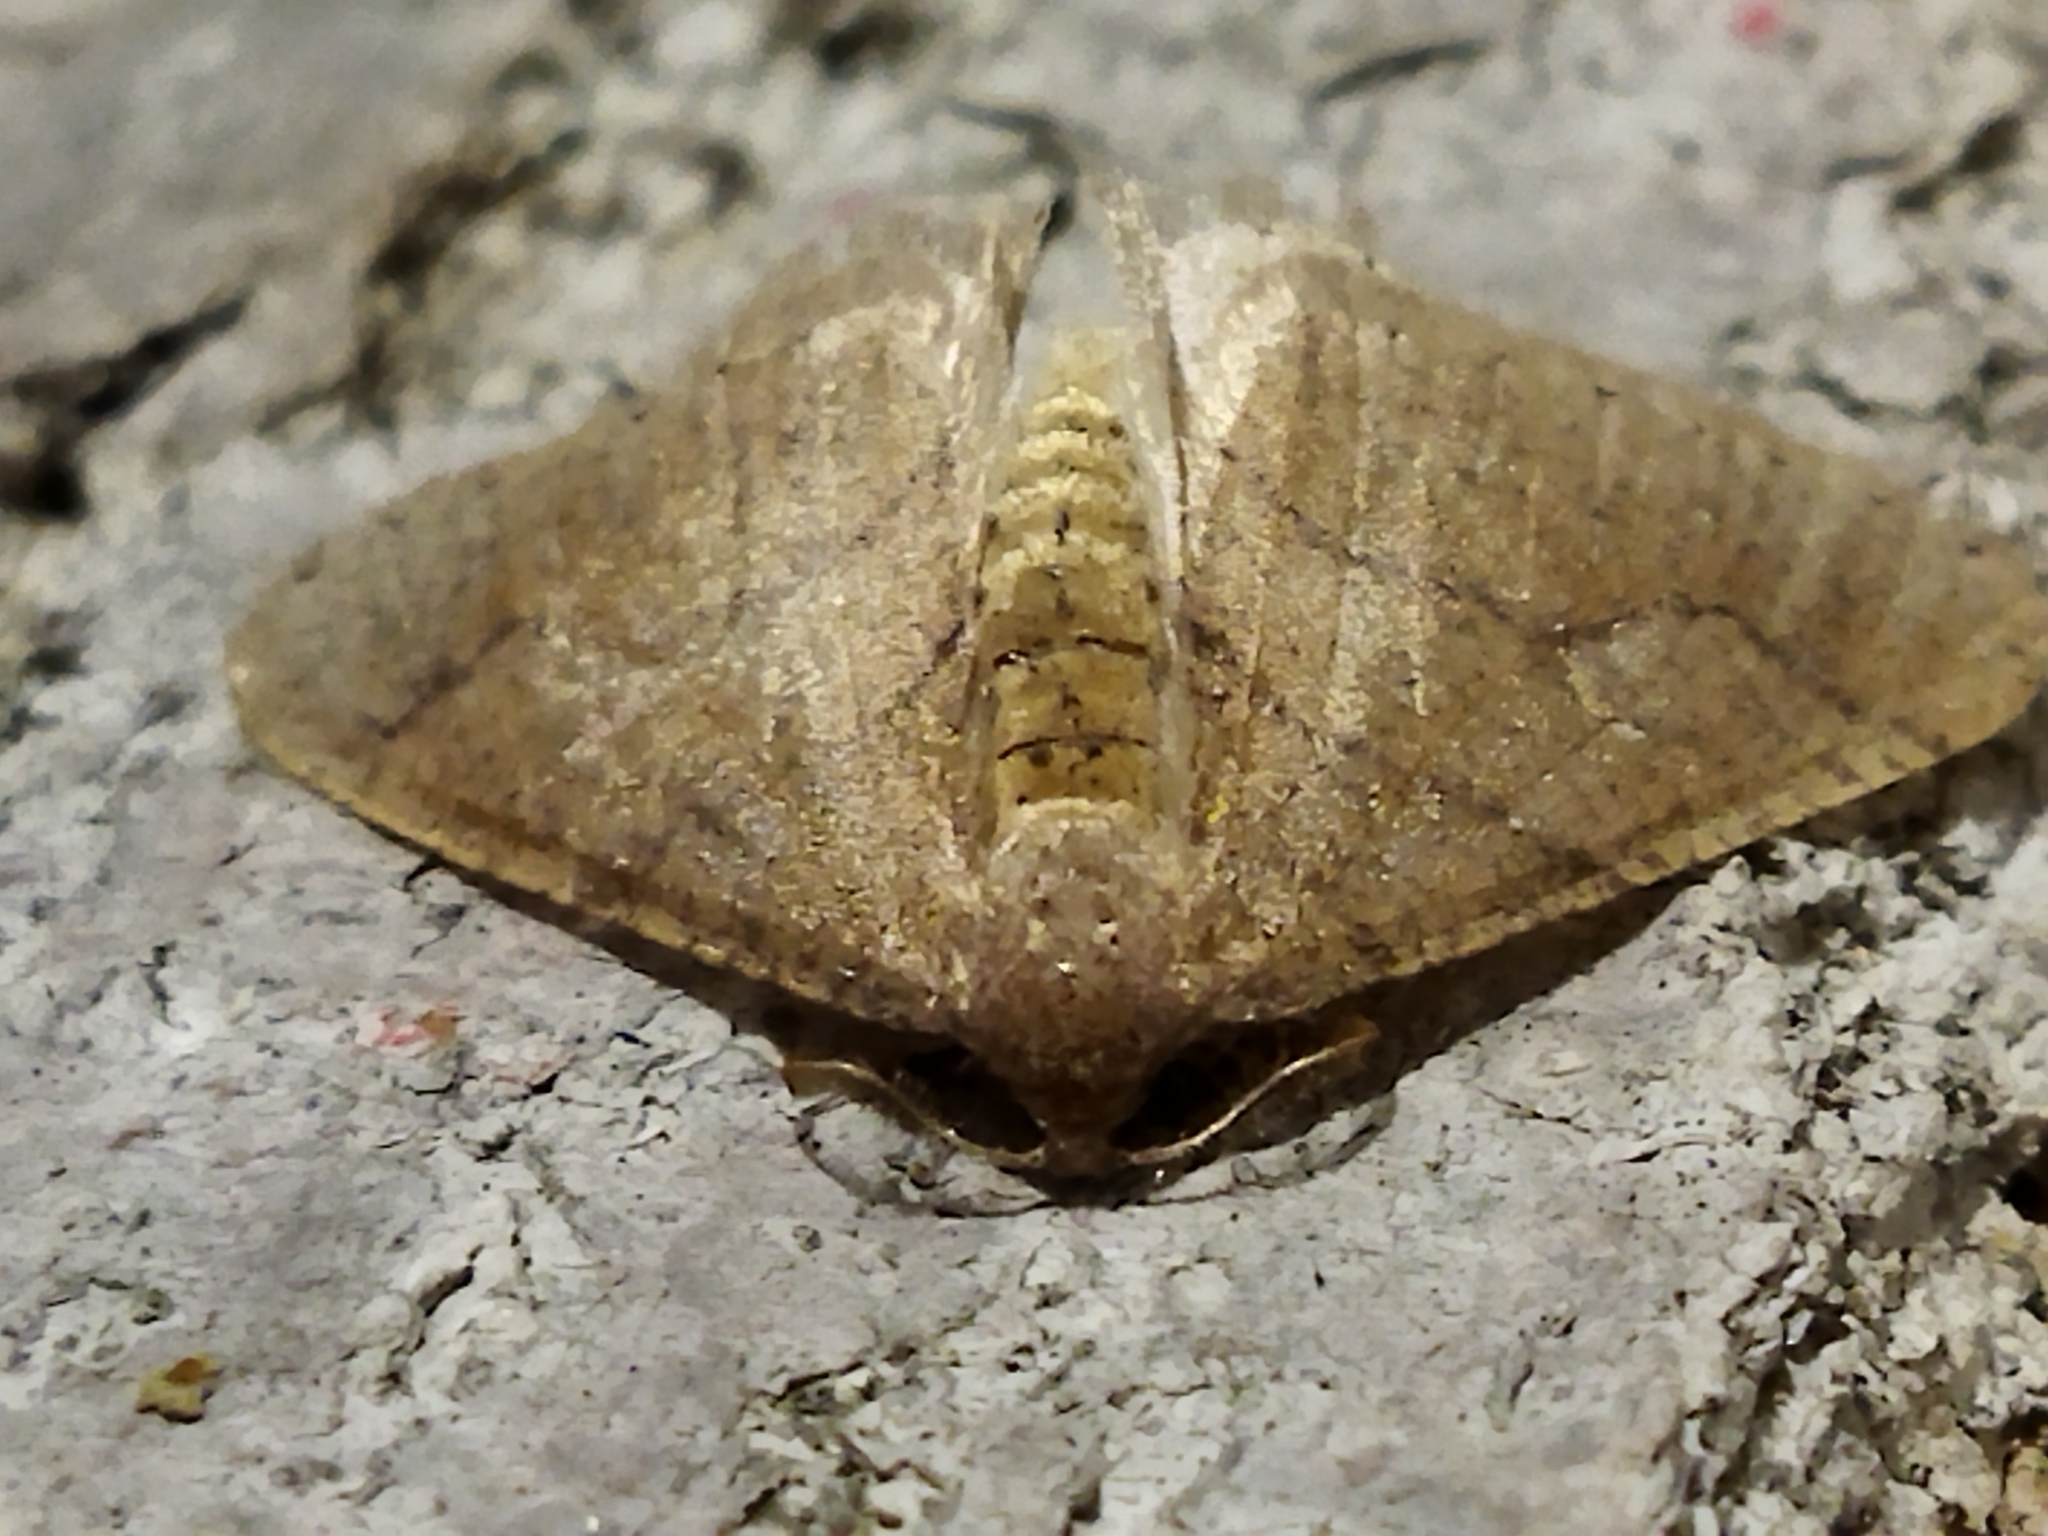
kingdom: Animalia
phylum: Arthropoda
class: Insecta
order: Lepidoptera
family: Geometridae
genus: Agriopis
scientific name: Agriopis marginaria
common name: Dotted border
